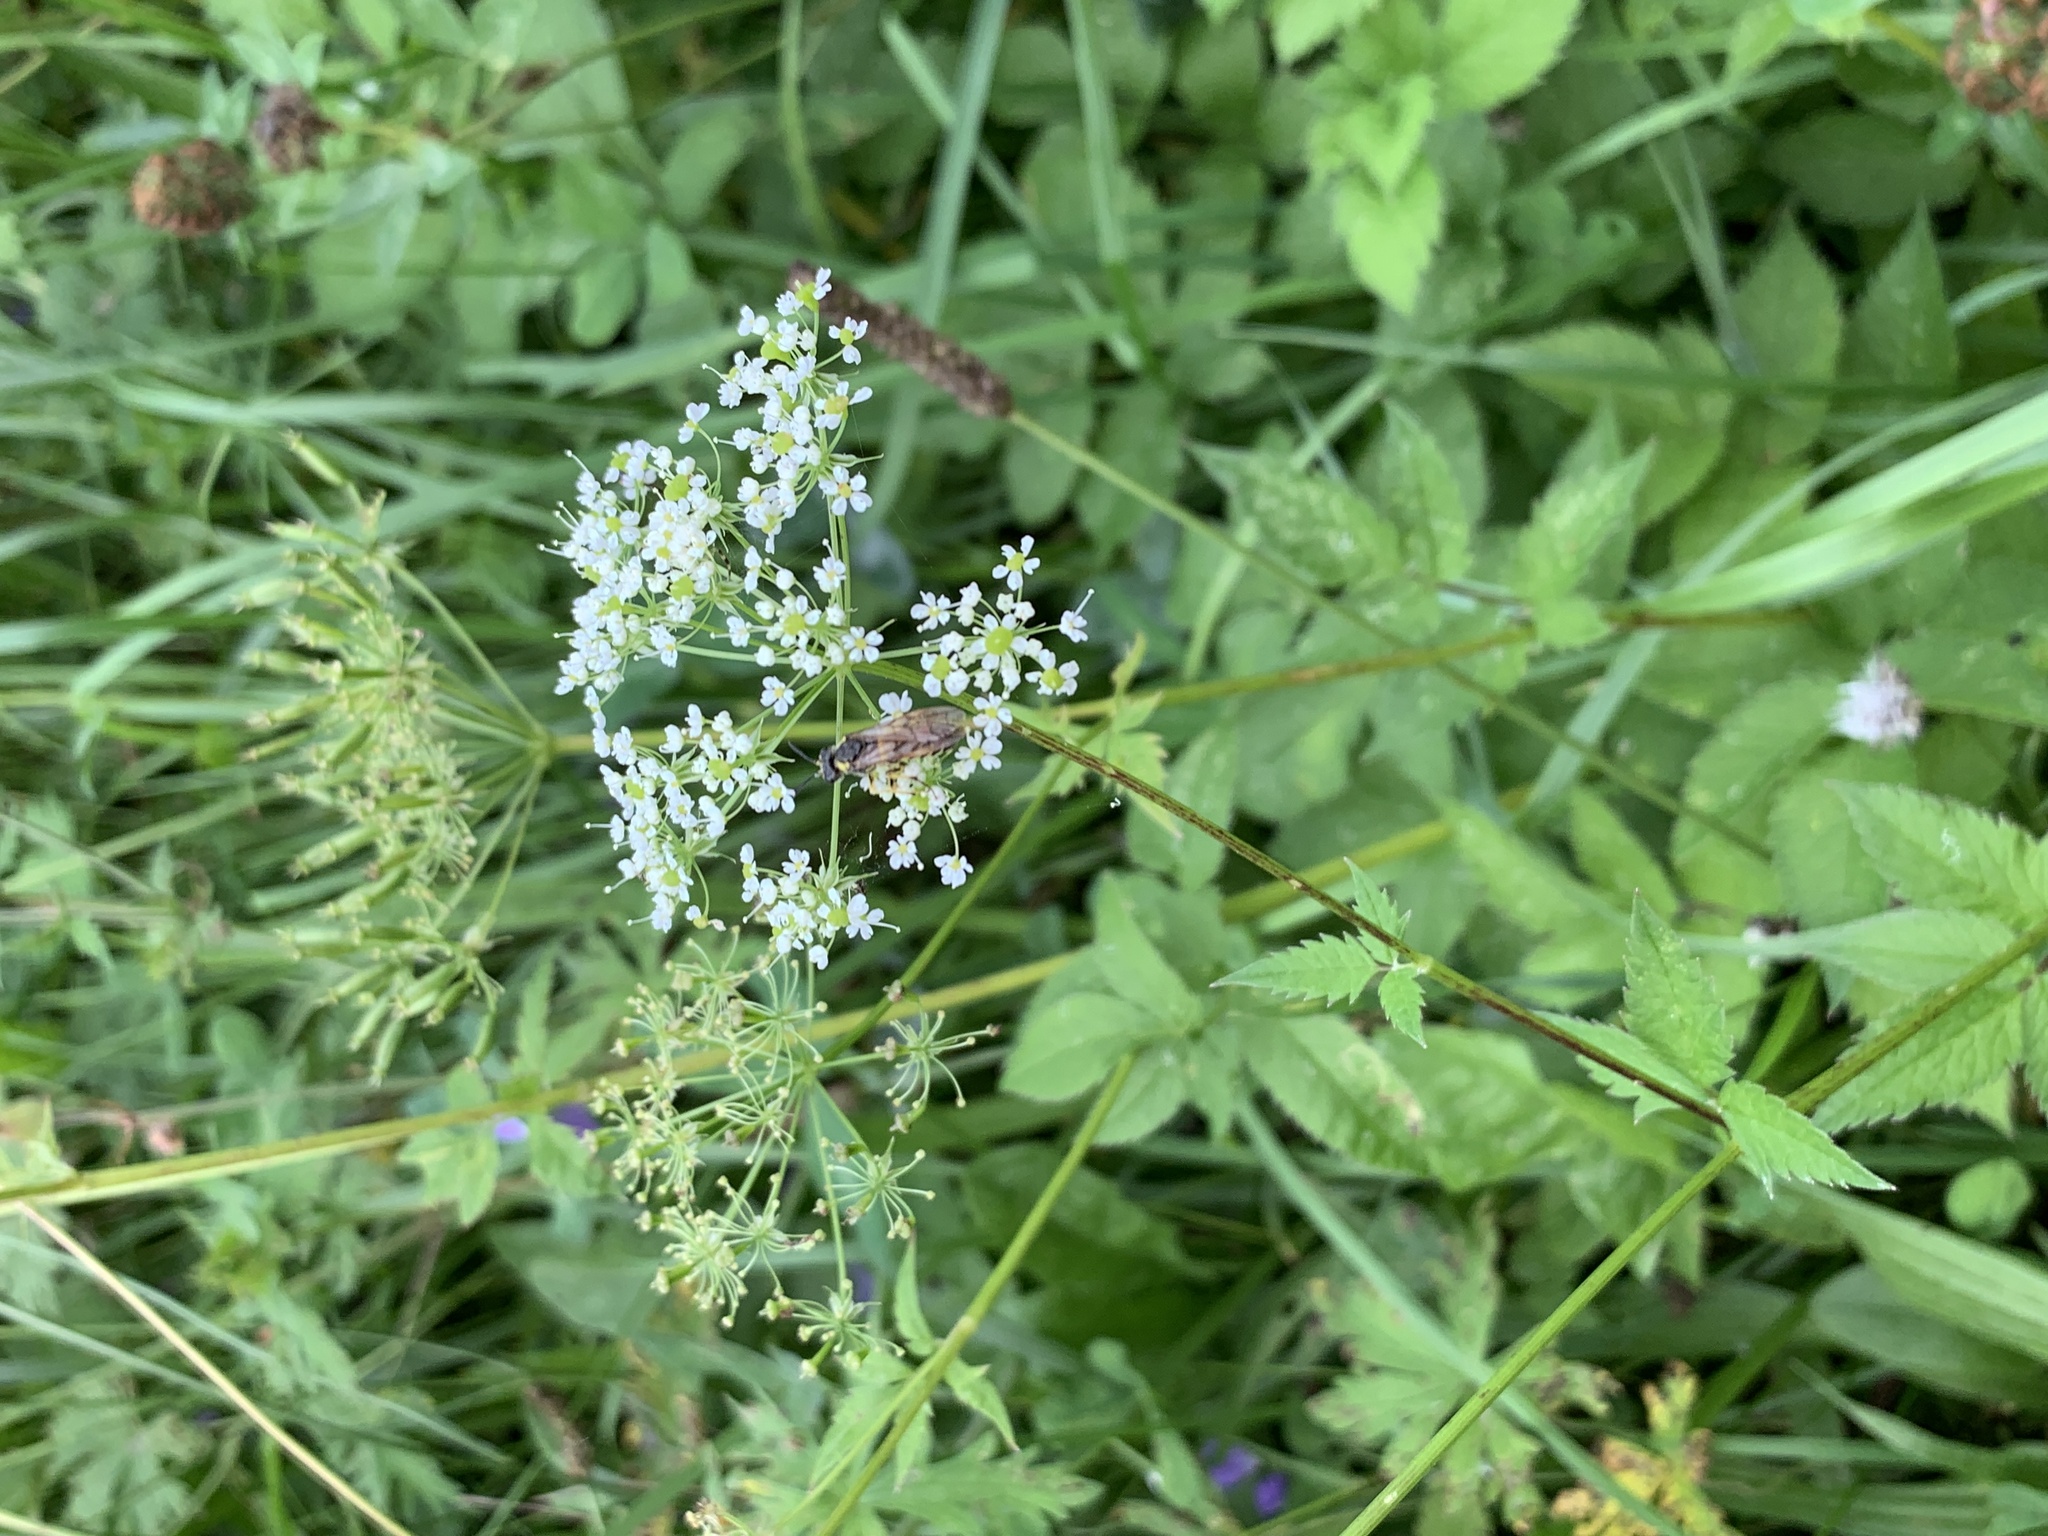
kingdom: Plantae
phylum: Tracheophyta
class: Magnoliopsida
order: Apiales
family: Apiaceae
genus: Chaerophyllum
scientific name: Chaerophyllum aromaticum
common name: Broadleaf chervil
